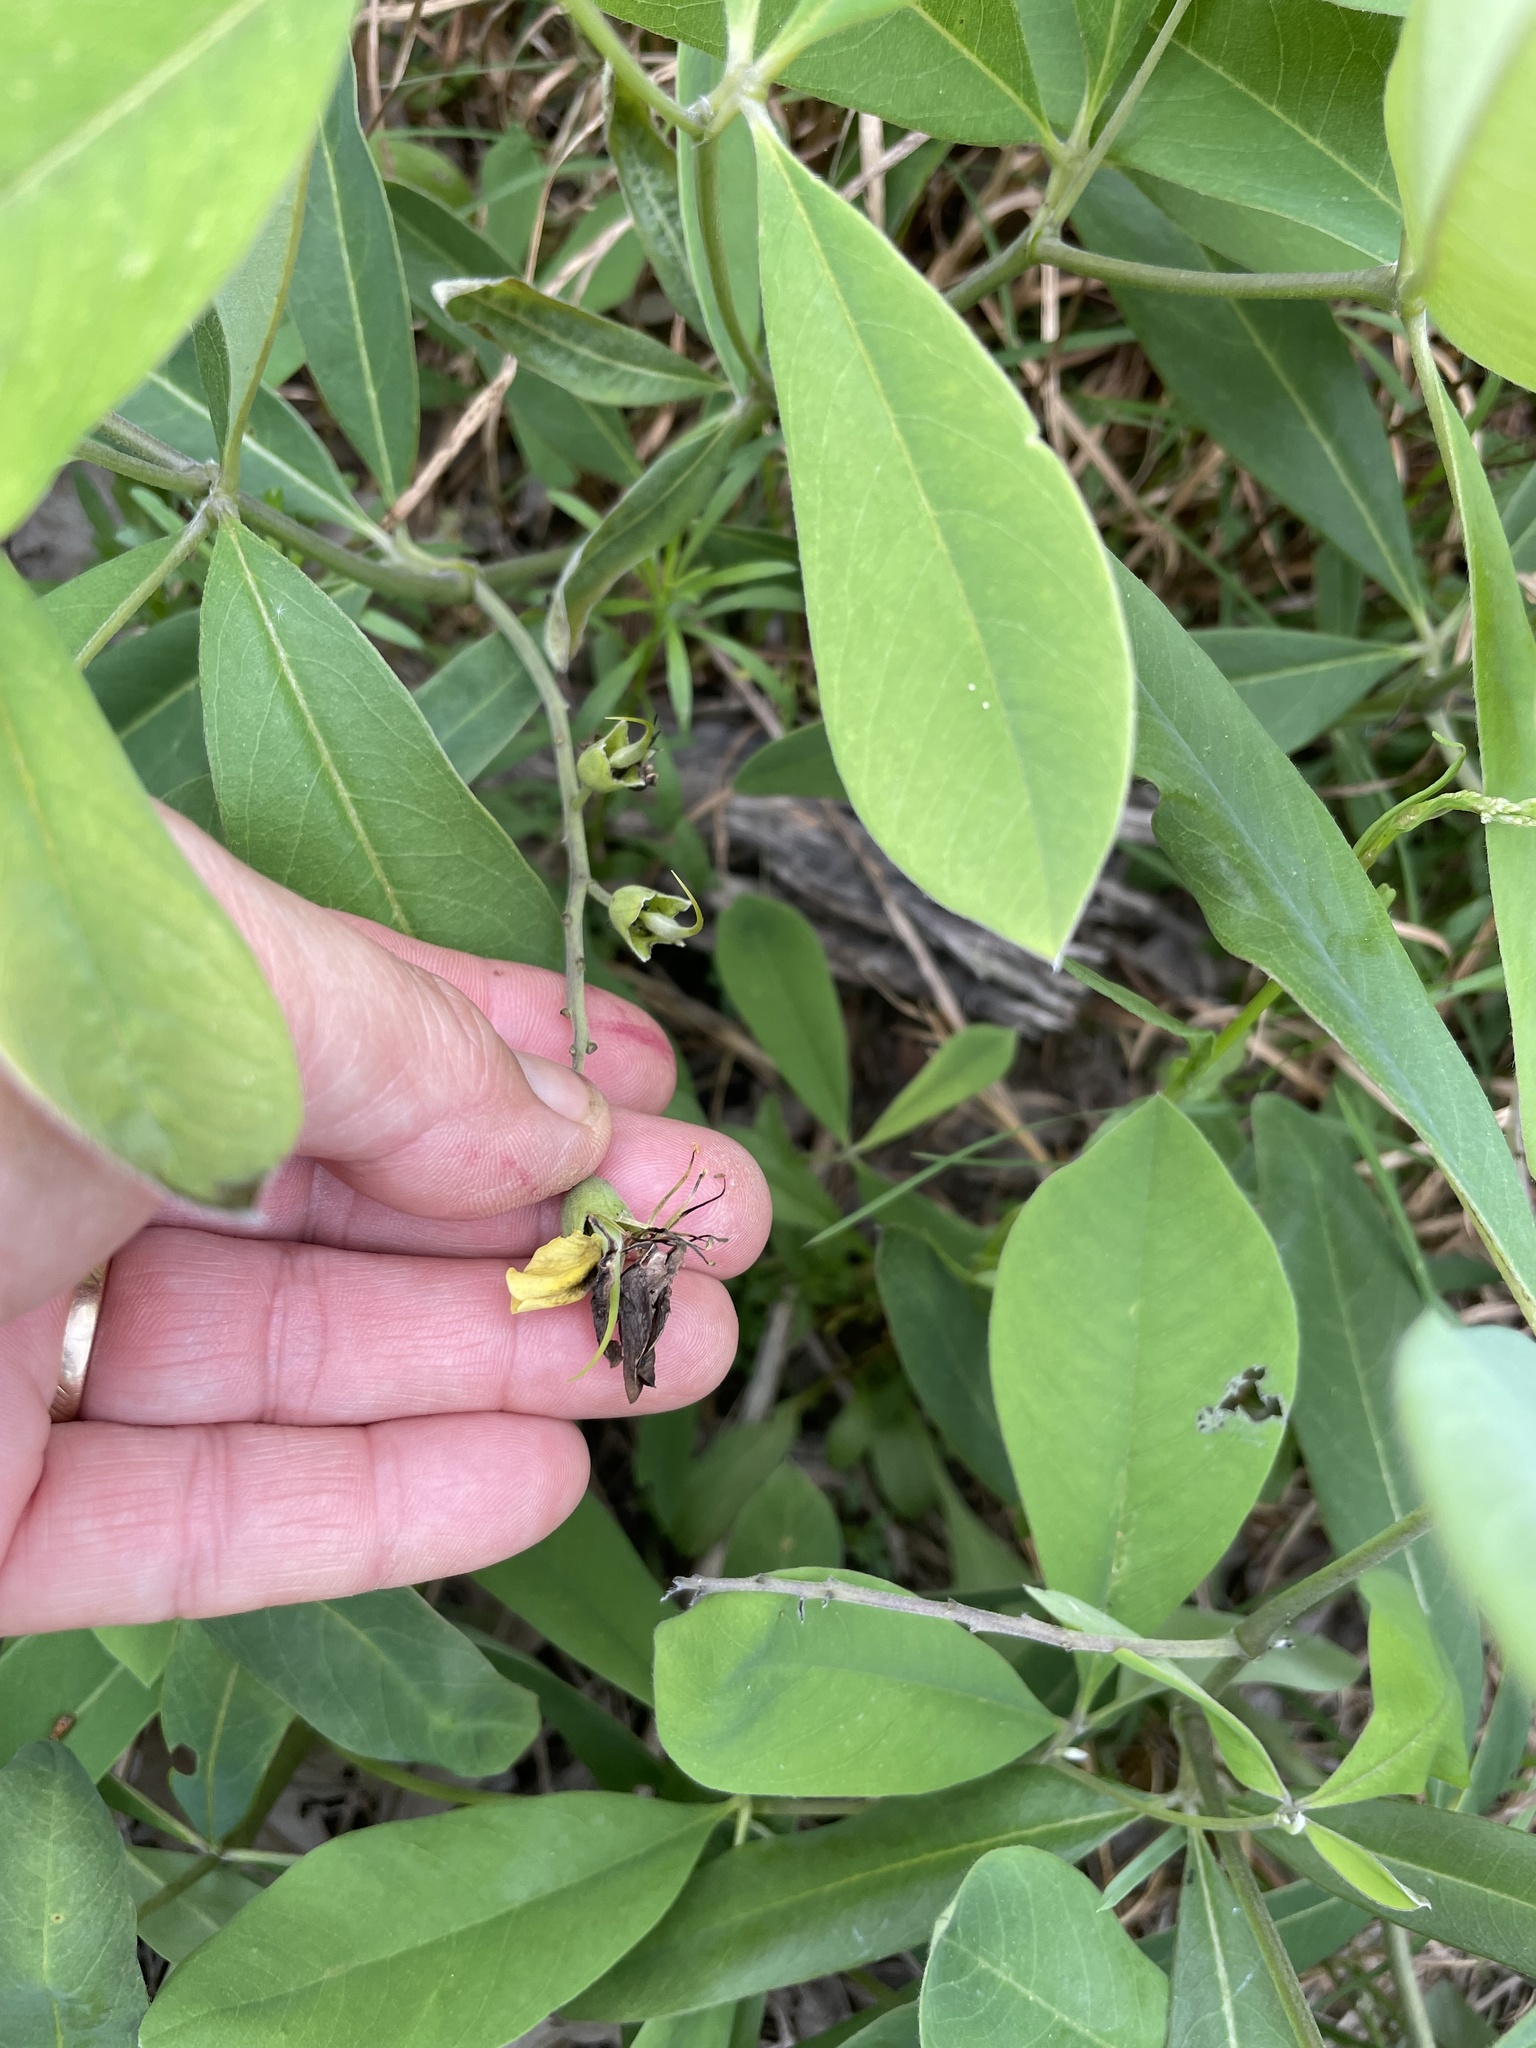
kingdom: Plantae
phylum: Tracheophyta
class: Magnoliopsida
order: Fabales
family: Fabaceae
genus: Baptisia
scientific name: Baptisia cinerea
